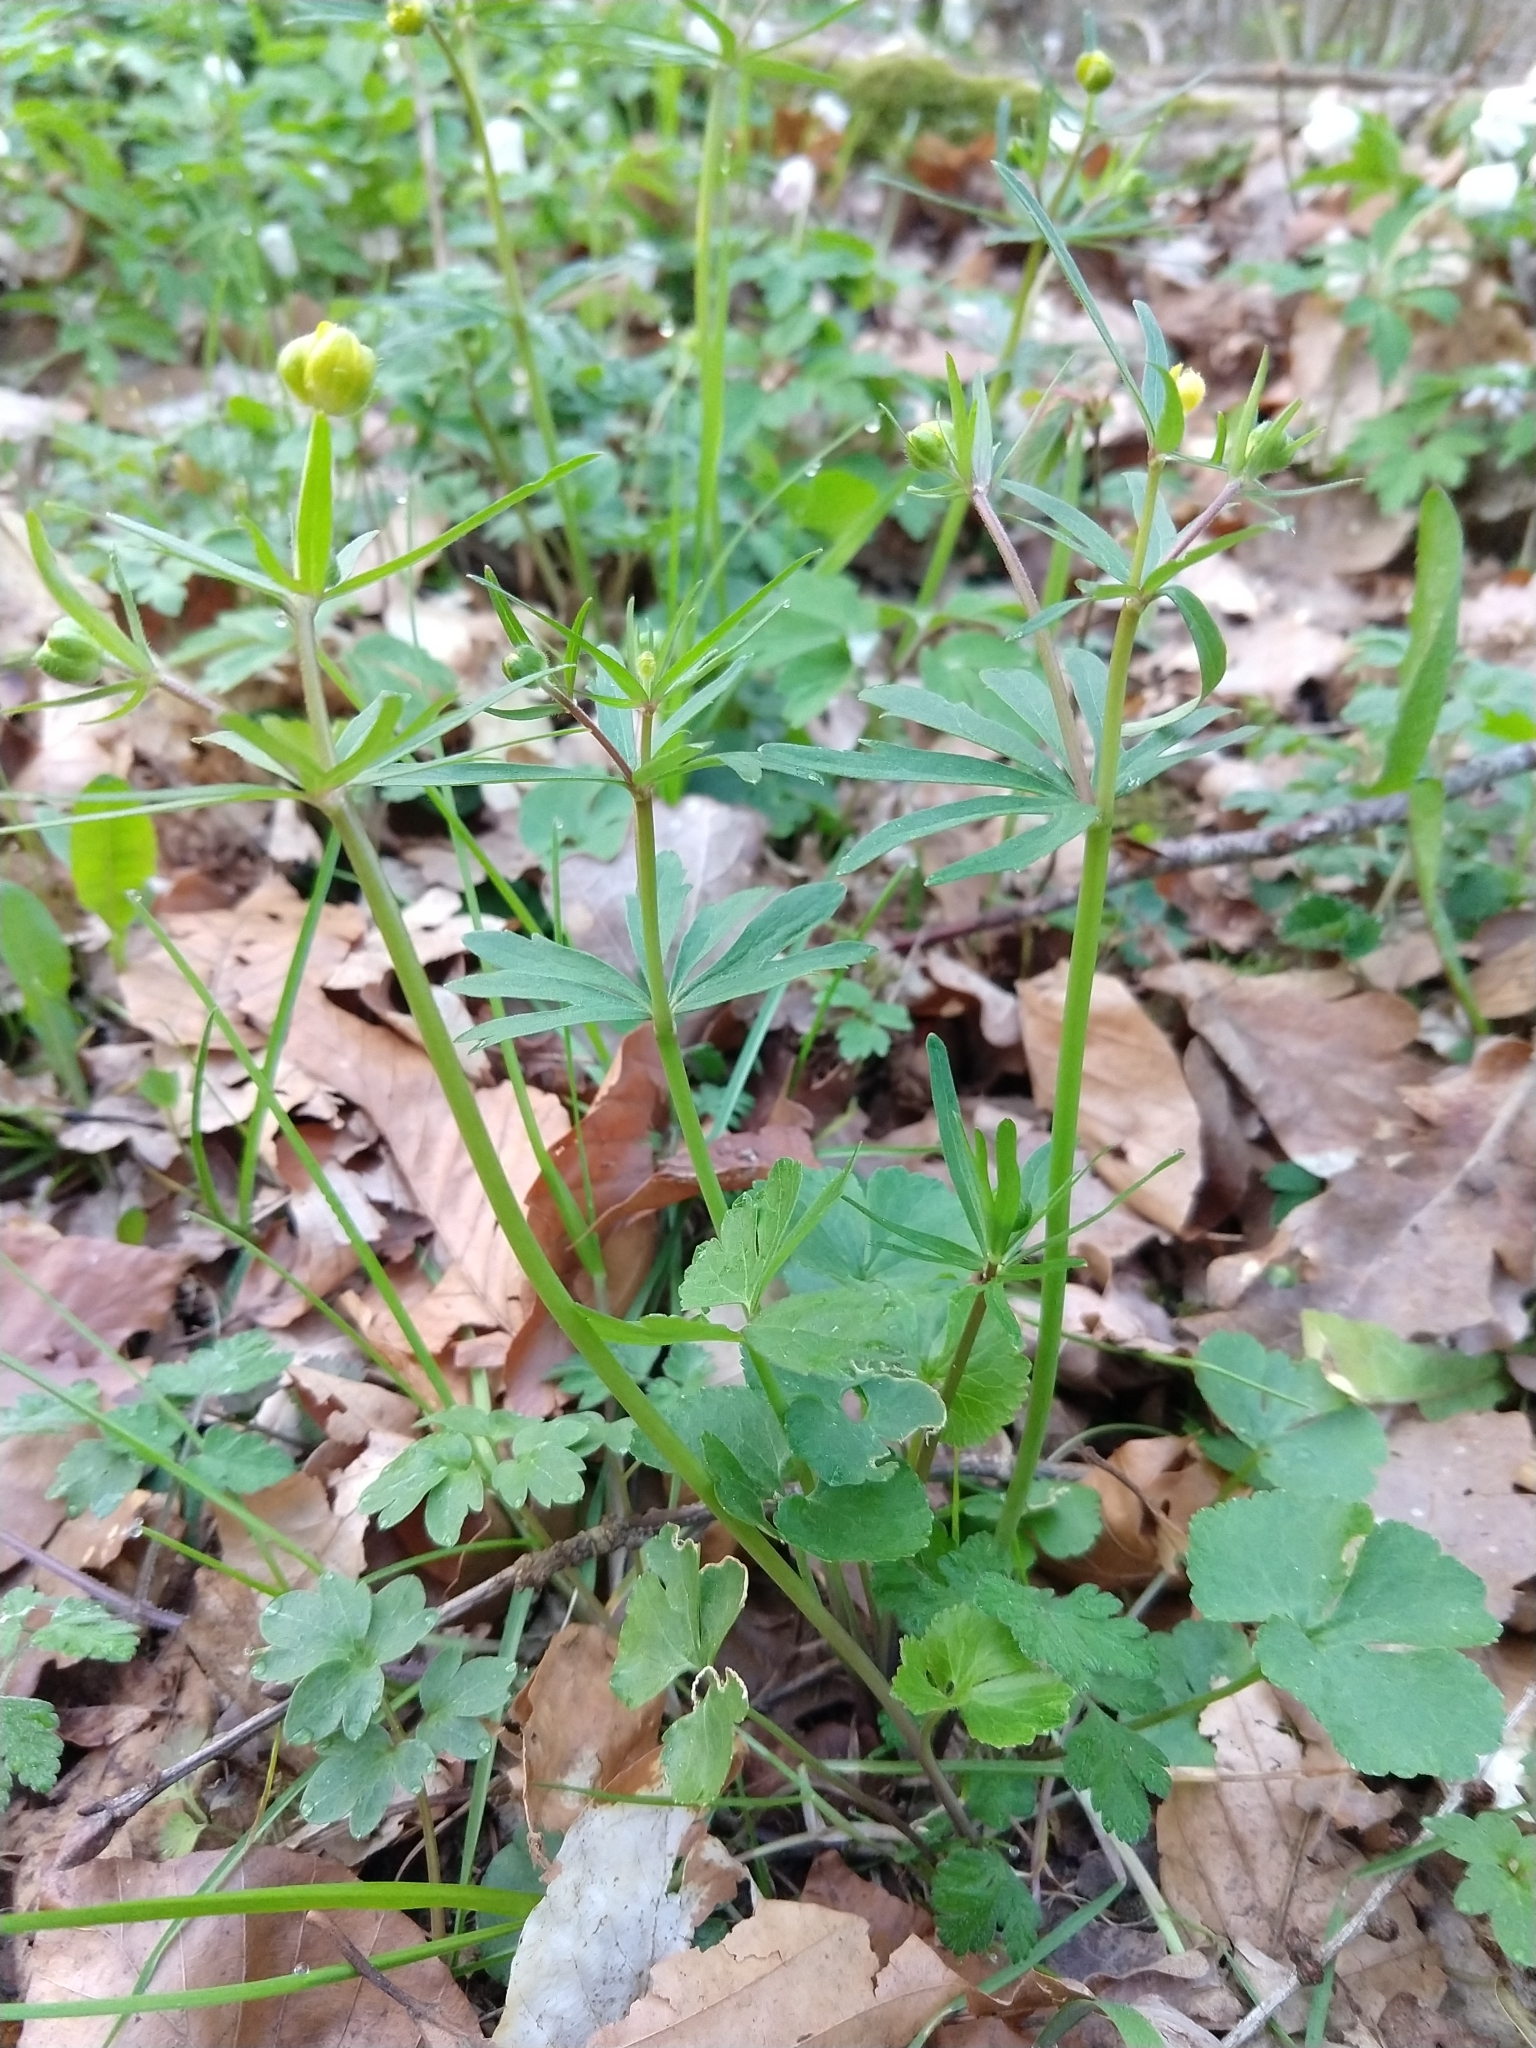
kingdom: Plantae
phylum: Tracheophyta
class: Magnoliopsida
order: Ranunculales
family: Ranunculaceae
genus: Ranunculus
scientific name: Ranunculus auricomus
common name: Goldilocks buttercup
